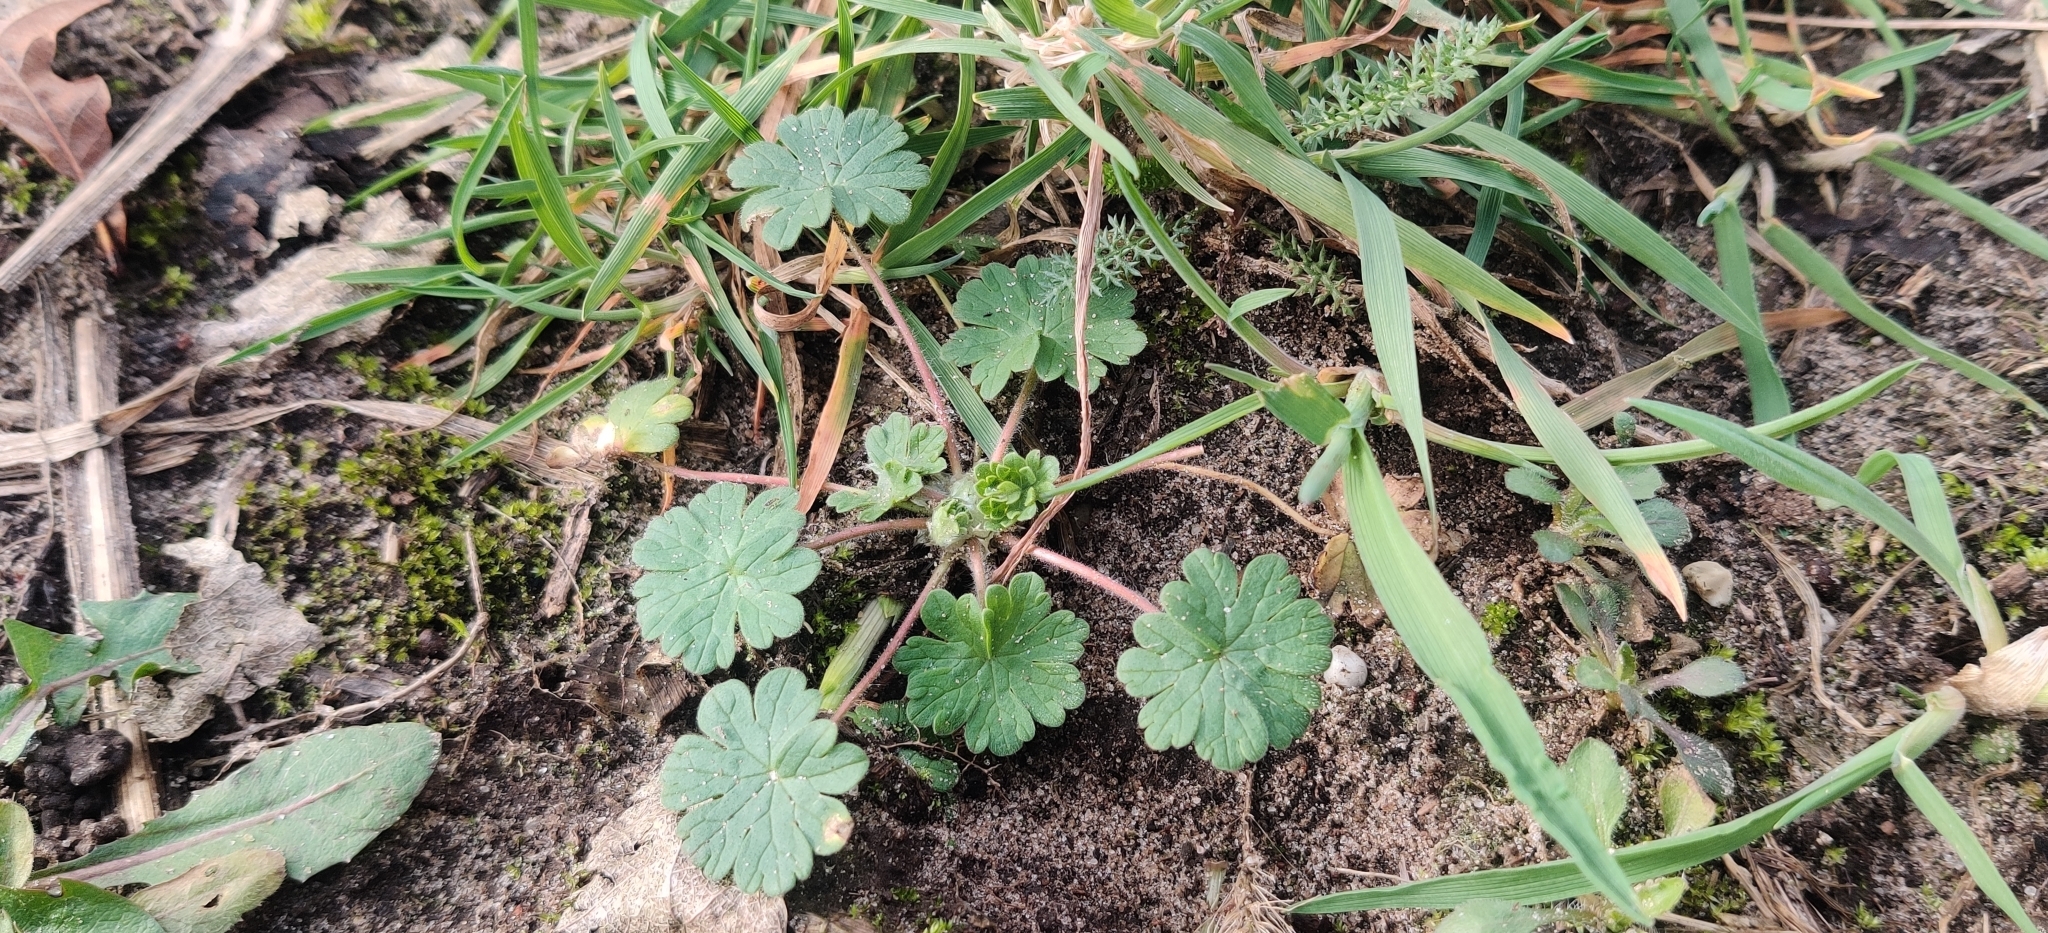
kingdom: Plantae
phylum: Tracheophyta
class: Magnoliopsida
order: Geraniales
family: Geraniaceae
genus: Geranium
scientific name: Geranium molle
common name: Dove's-foot crane's-bill
